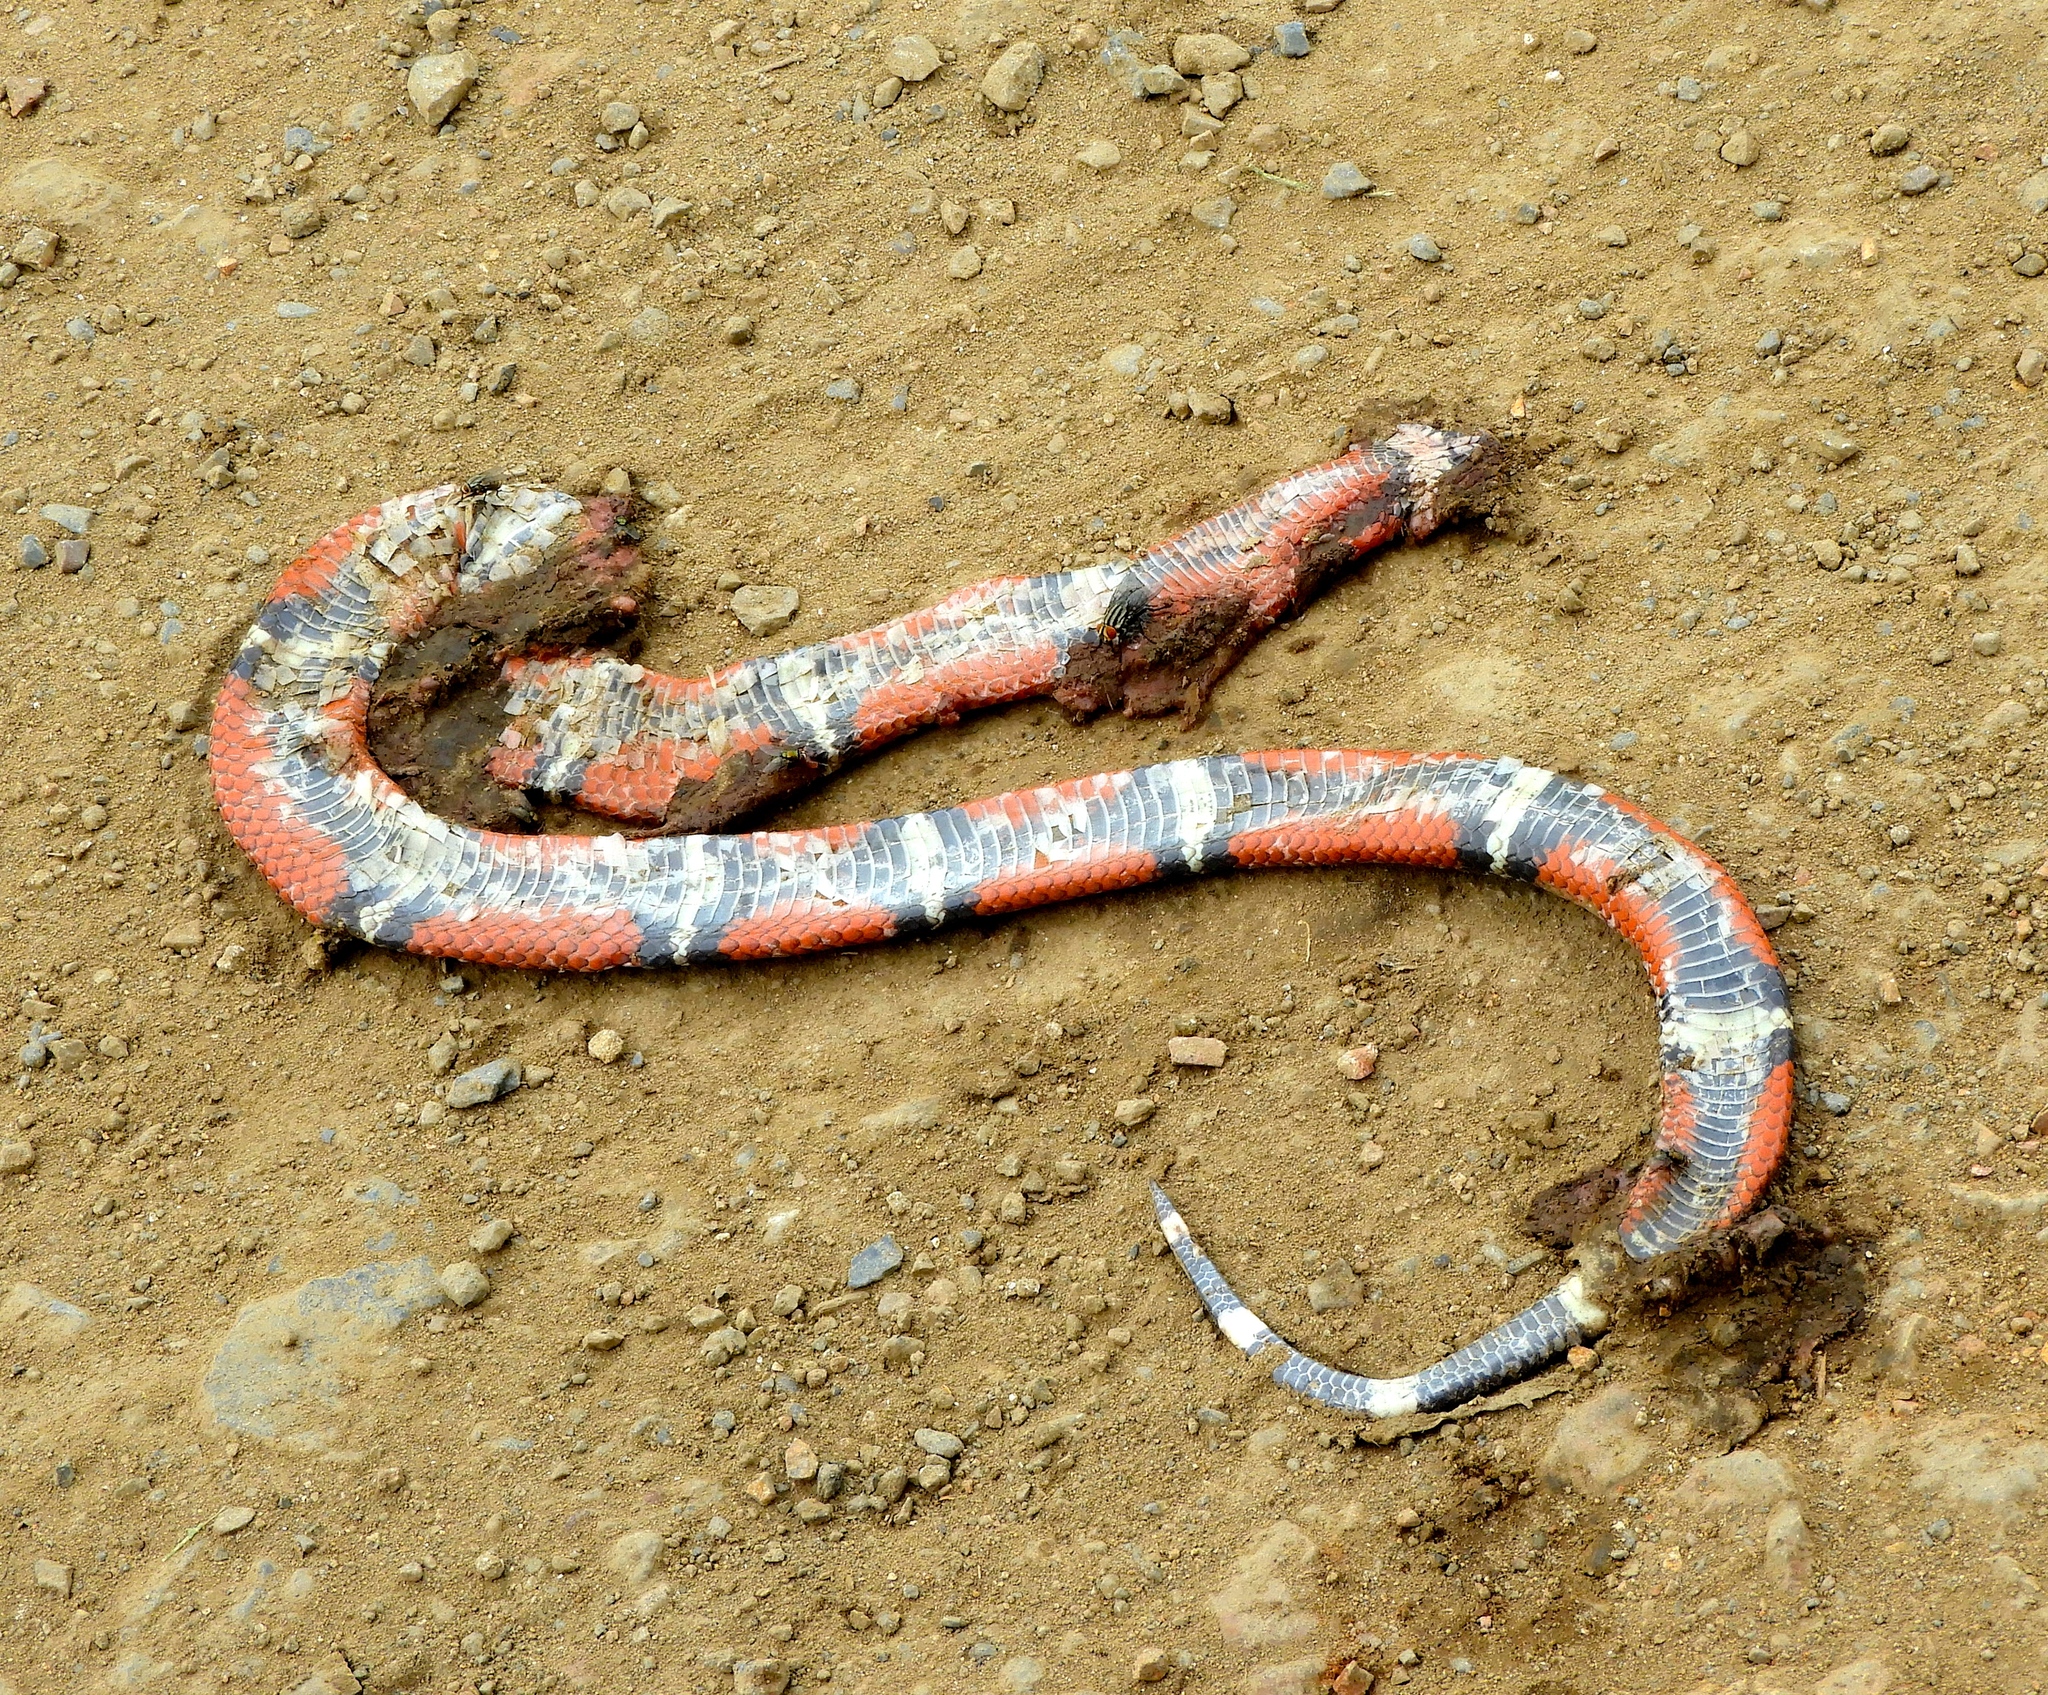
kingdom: Animalia
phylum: Chordata
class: Squamata
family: Colubridae
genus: Lampropeltis
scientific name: Lampropeltis polyzona
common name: Atlantic central american milksnake
